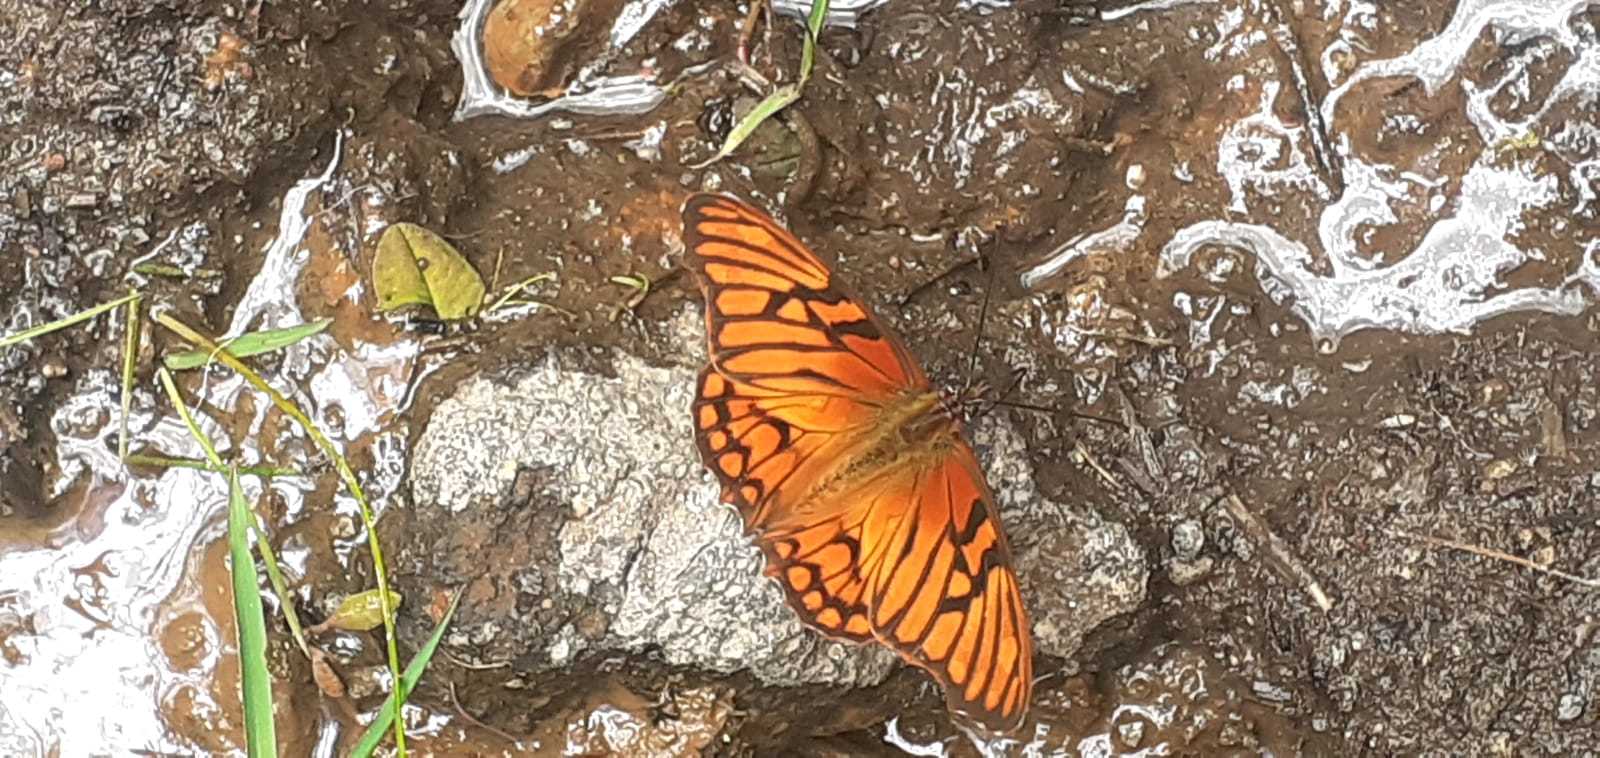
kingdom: Animalia
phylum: Arthropoda
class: Insecta
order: Lepidoptera
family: Nymphalidae
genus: Dione
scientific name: Dione glycera
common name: Andean silverspot
